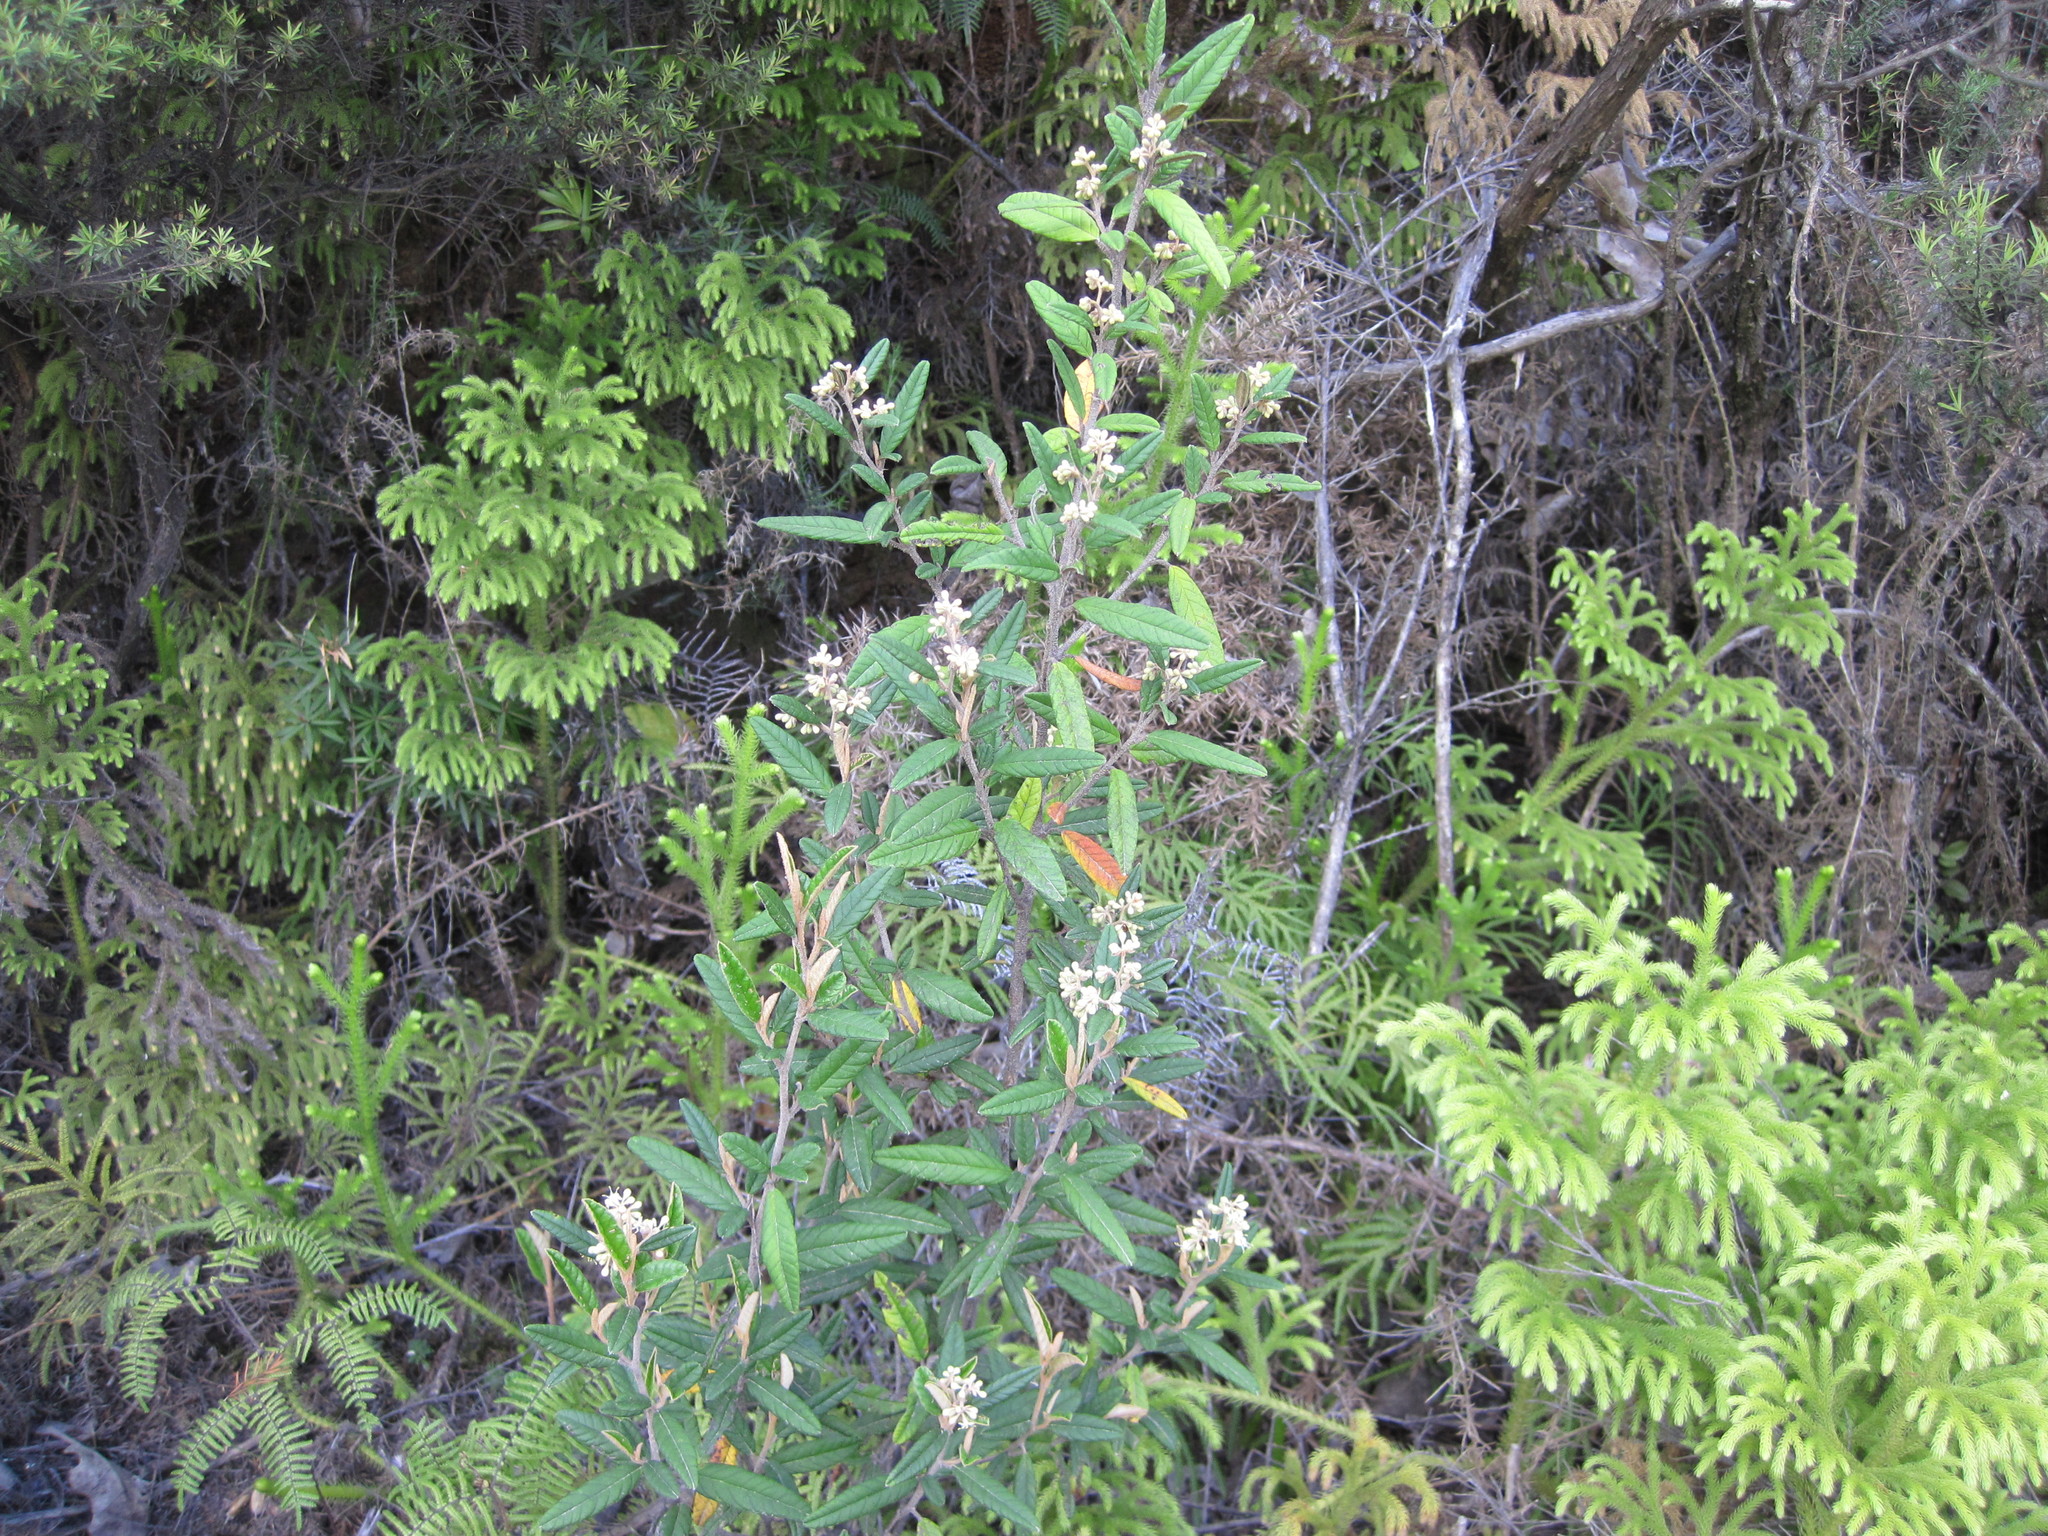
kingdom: Plantae
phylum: Tracheophyta
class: Magnoliopsida
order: Rosales
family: Rhamnaceae
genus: Pomaderris
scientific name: Pomaderris rugosa
